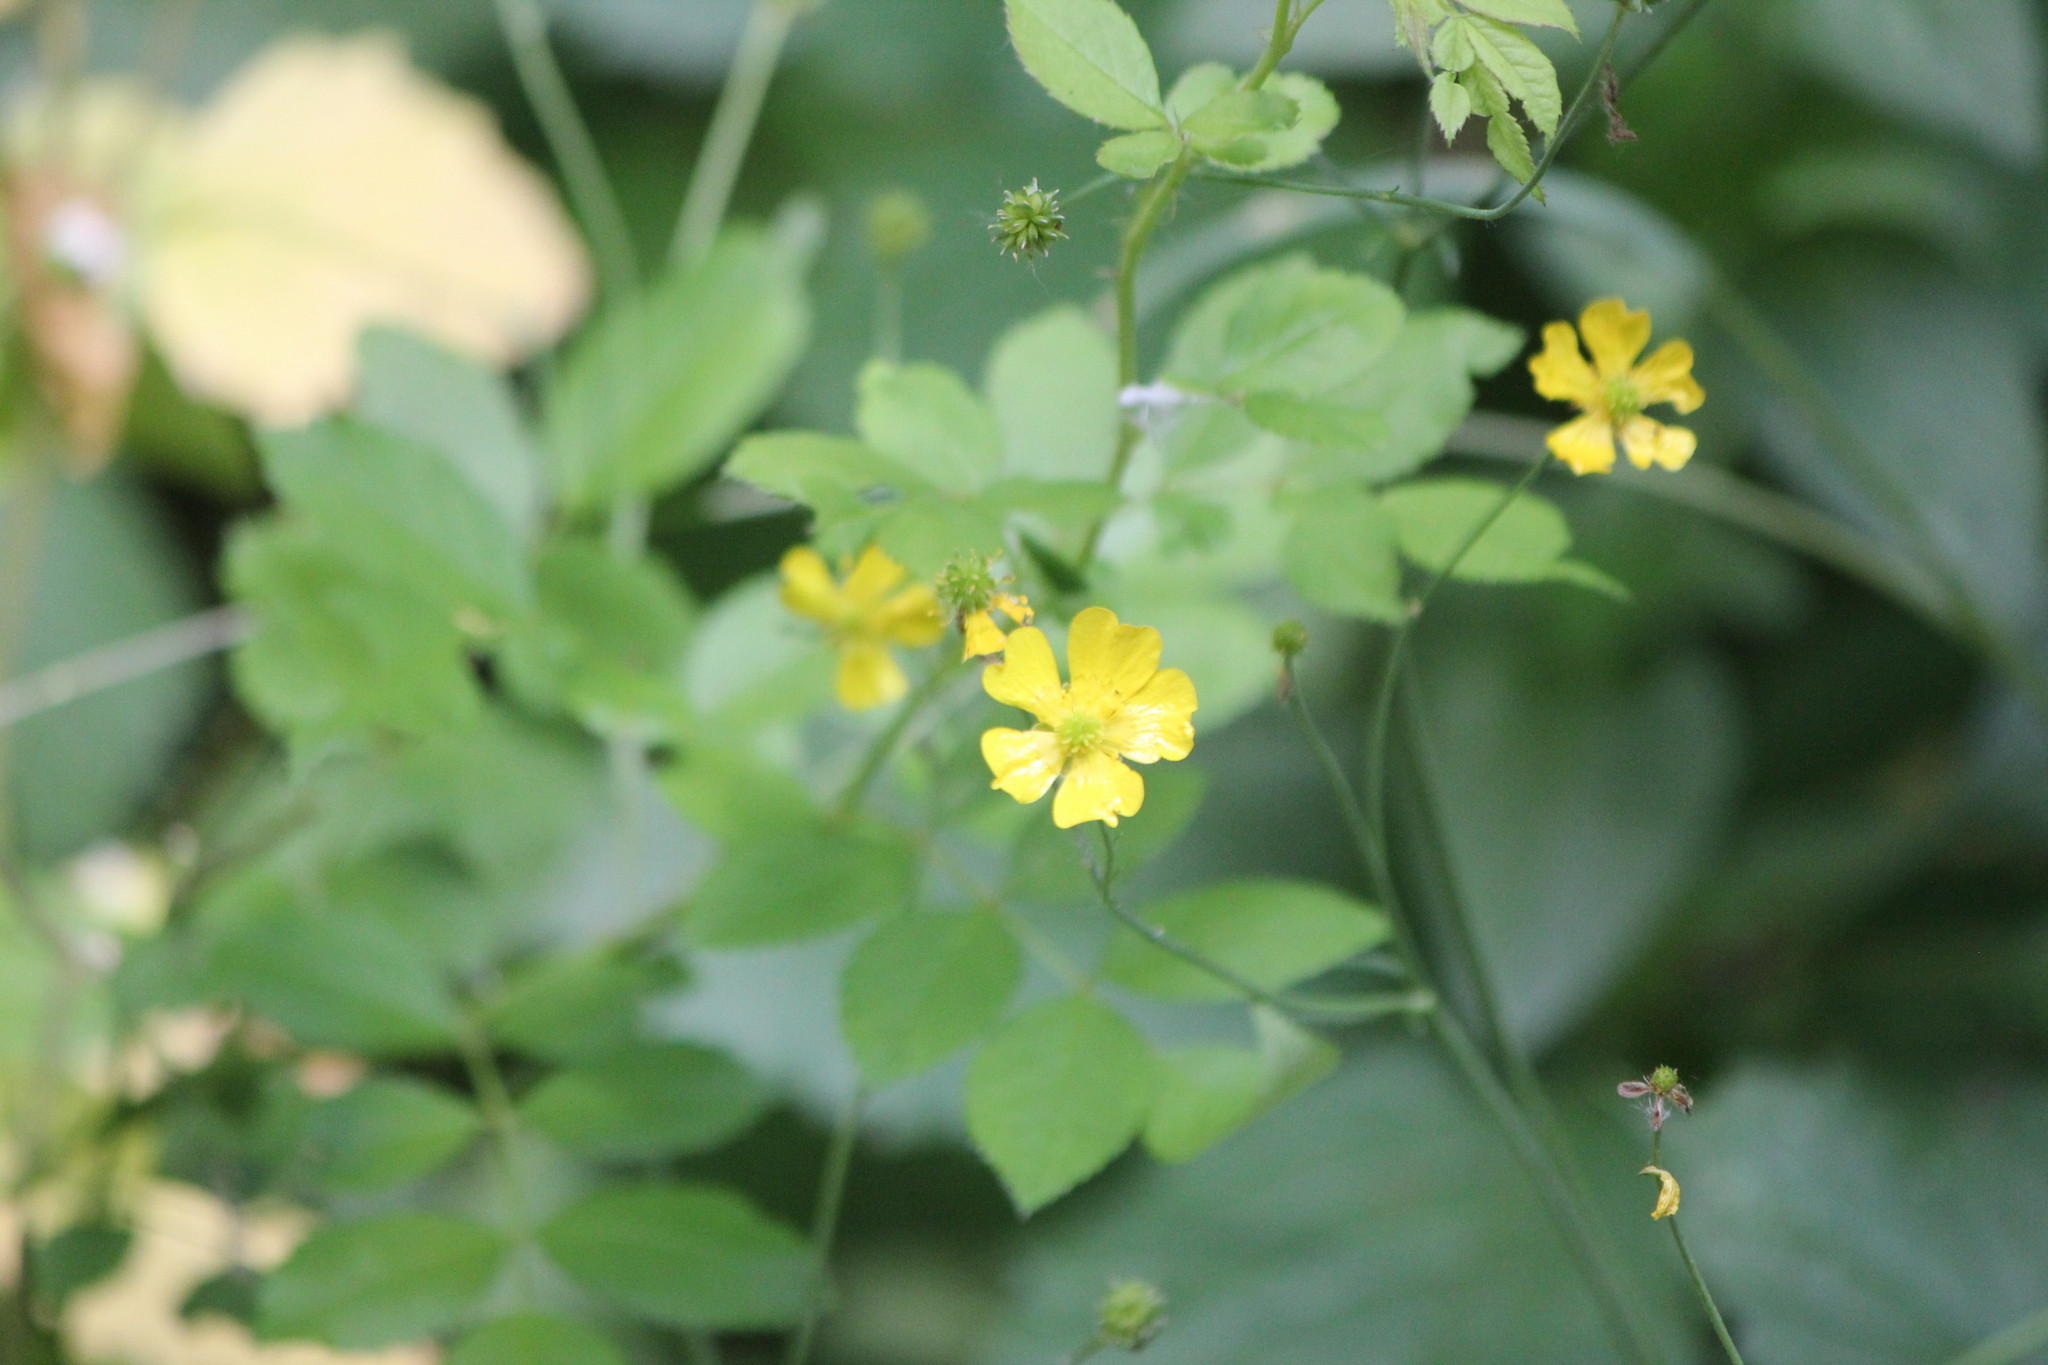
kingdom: Plantae
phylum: Tracheophyta
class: Magnoliopsida
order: Ranunculales
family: Ranunculaceae
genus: Ranunculus
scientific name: Ranunculus acris
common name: Meadow buttercup
